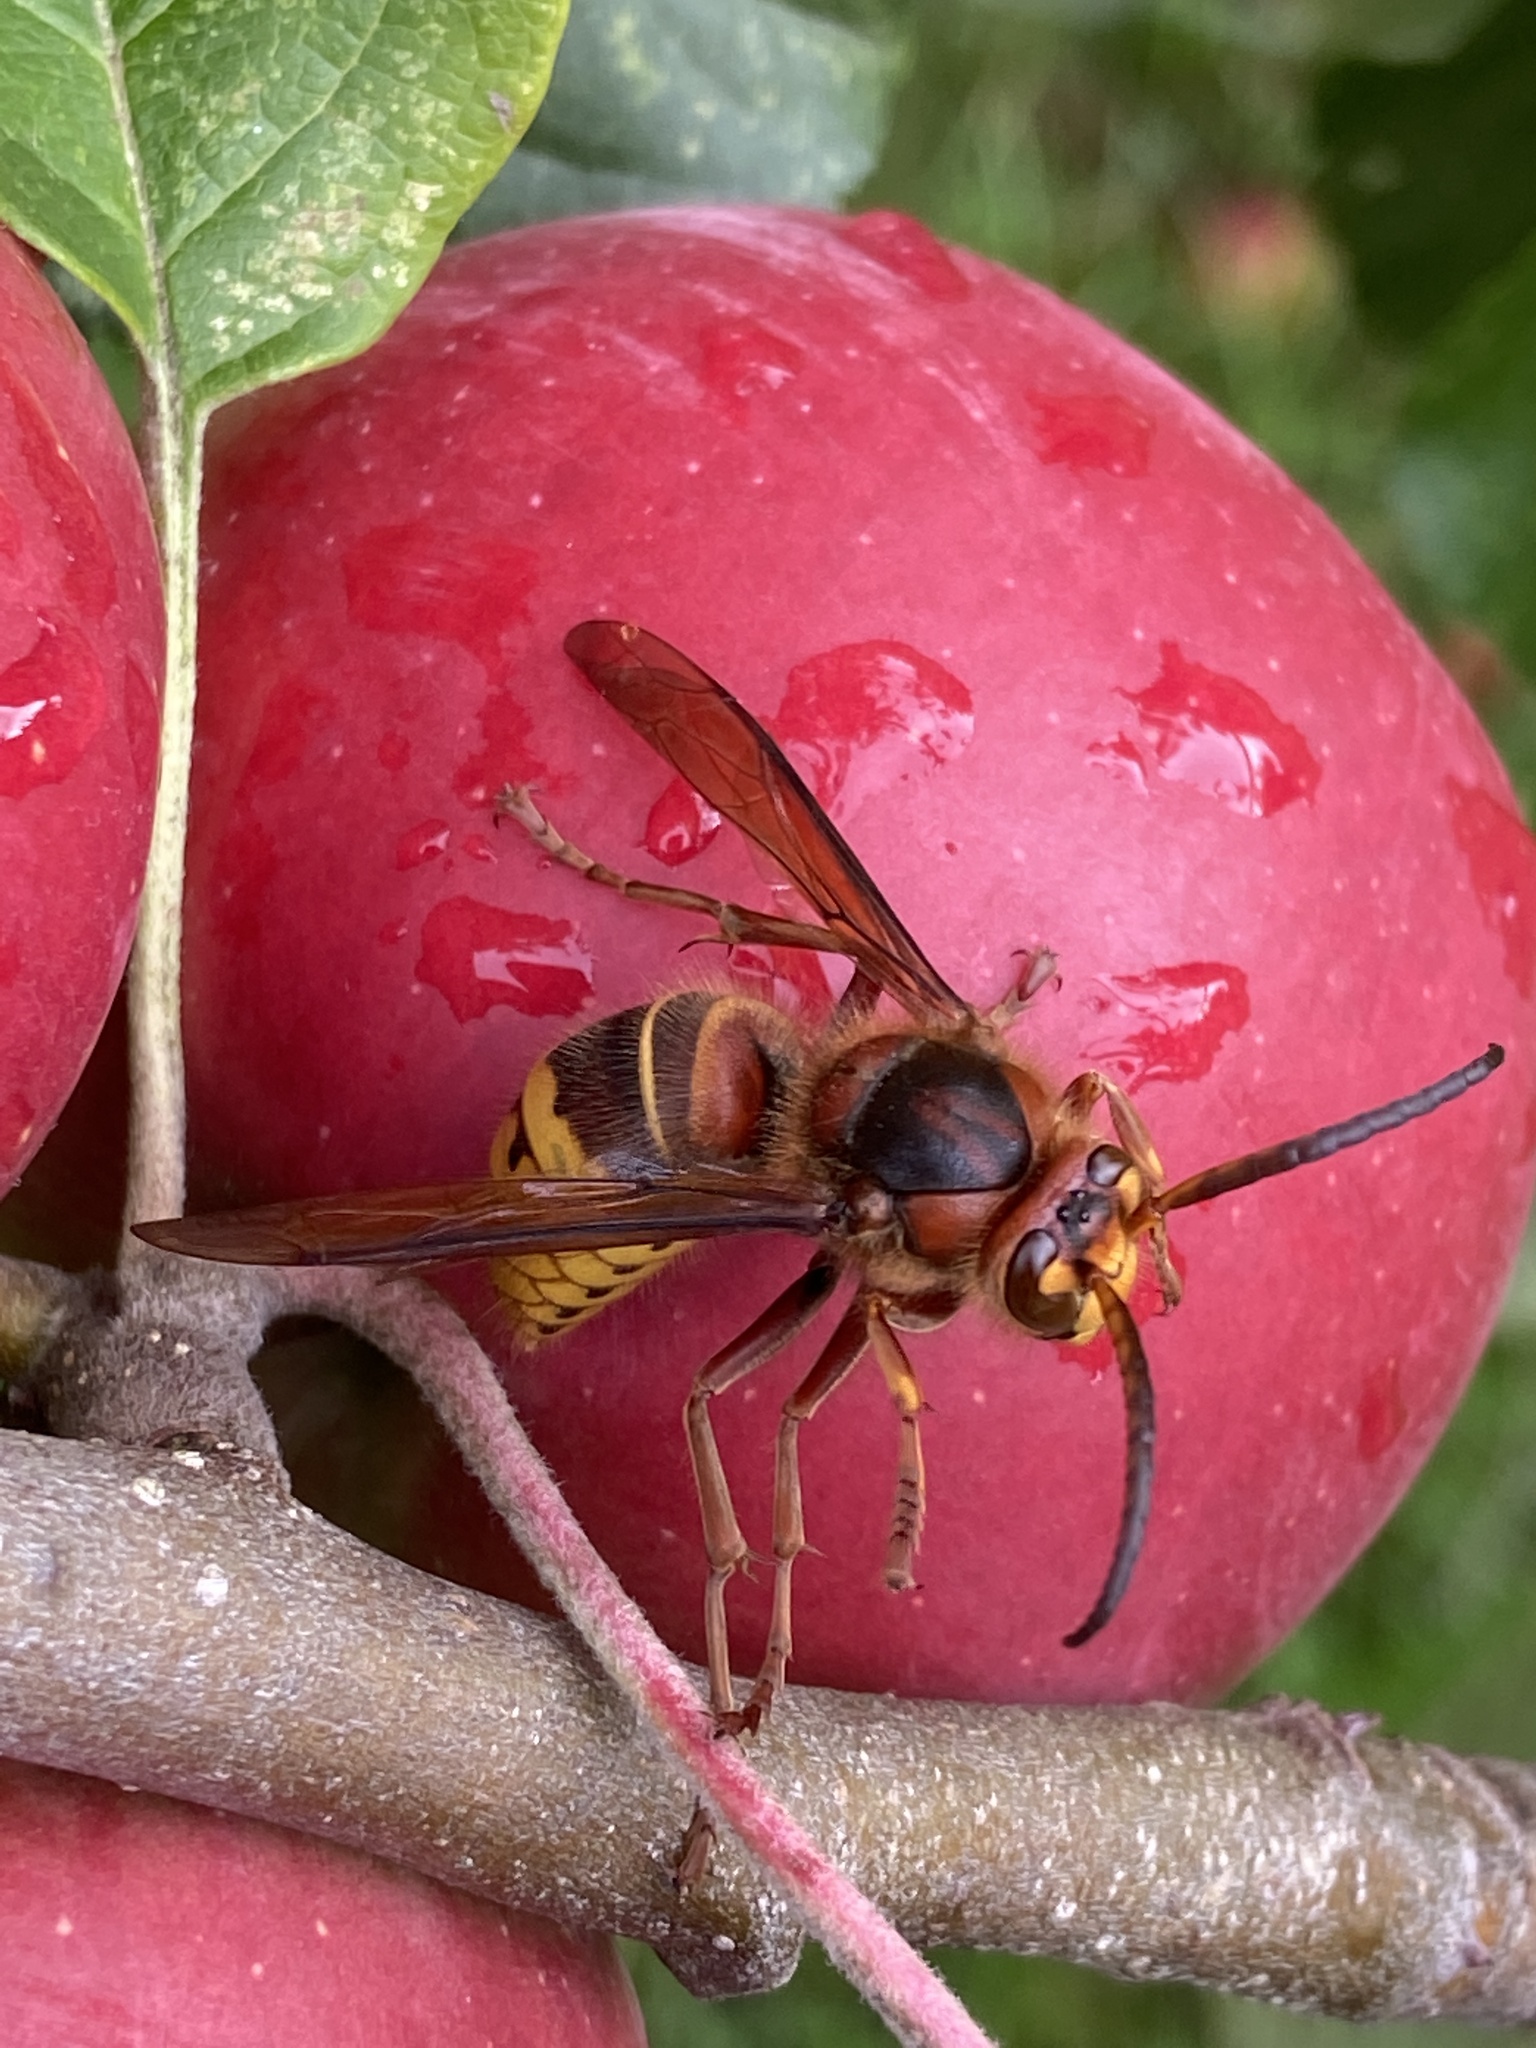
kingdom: Animalia
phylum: Arthropoda
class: Insecta
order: Hymenoptera
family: Vespidae
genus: Vespa
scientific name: Vespa crabro
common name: Hornet
